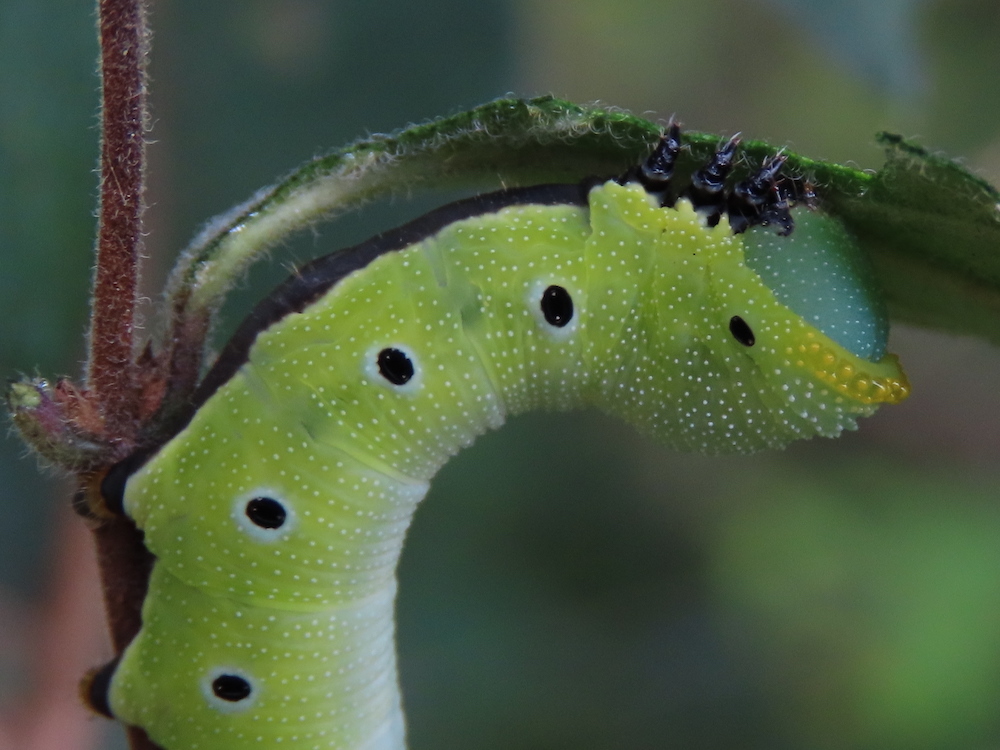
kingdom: Animalia
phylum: Arthropoda
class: Insecta
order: Lepidoptera
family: Sphingidae
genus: Hemaris
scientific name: Hemaris diffinis
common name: Bumblebee moth
